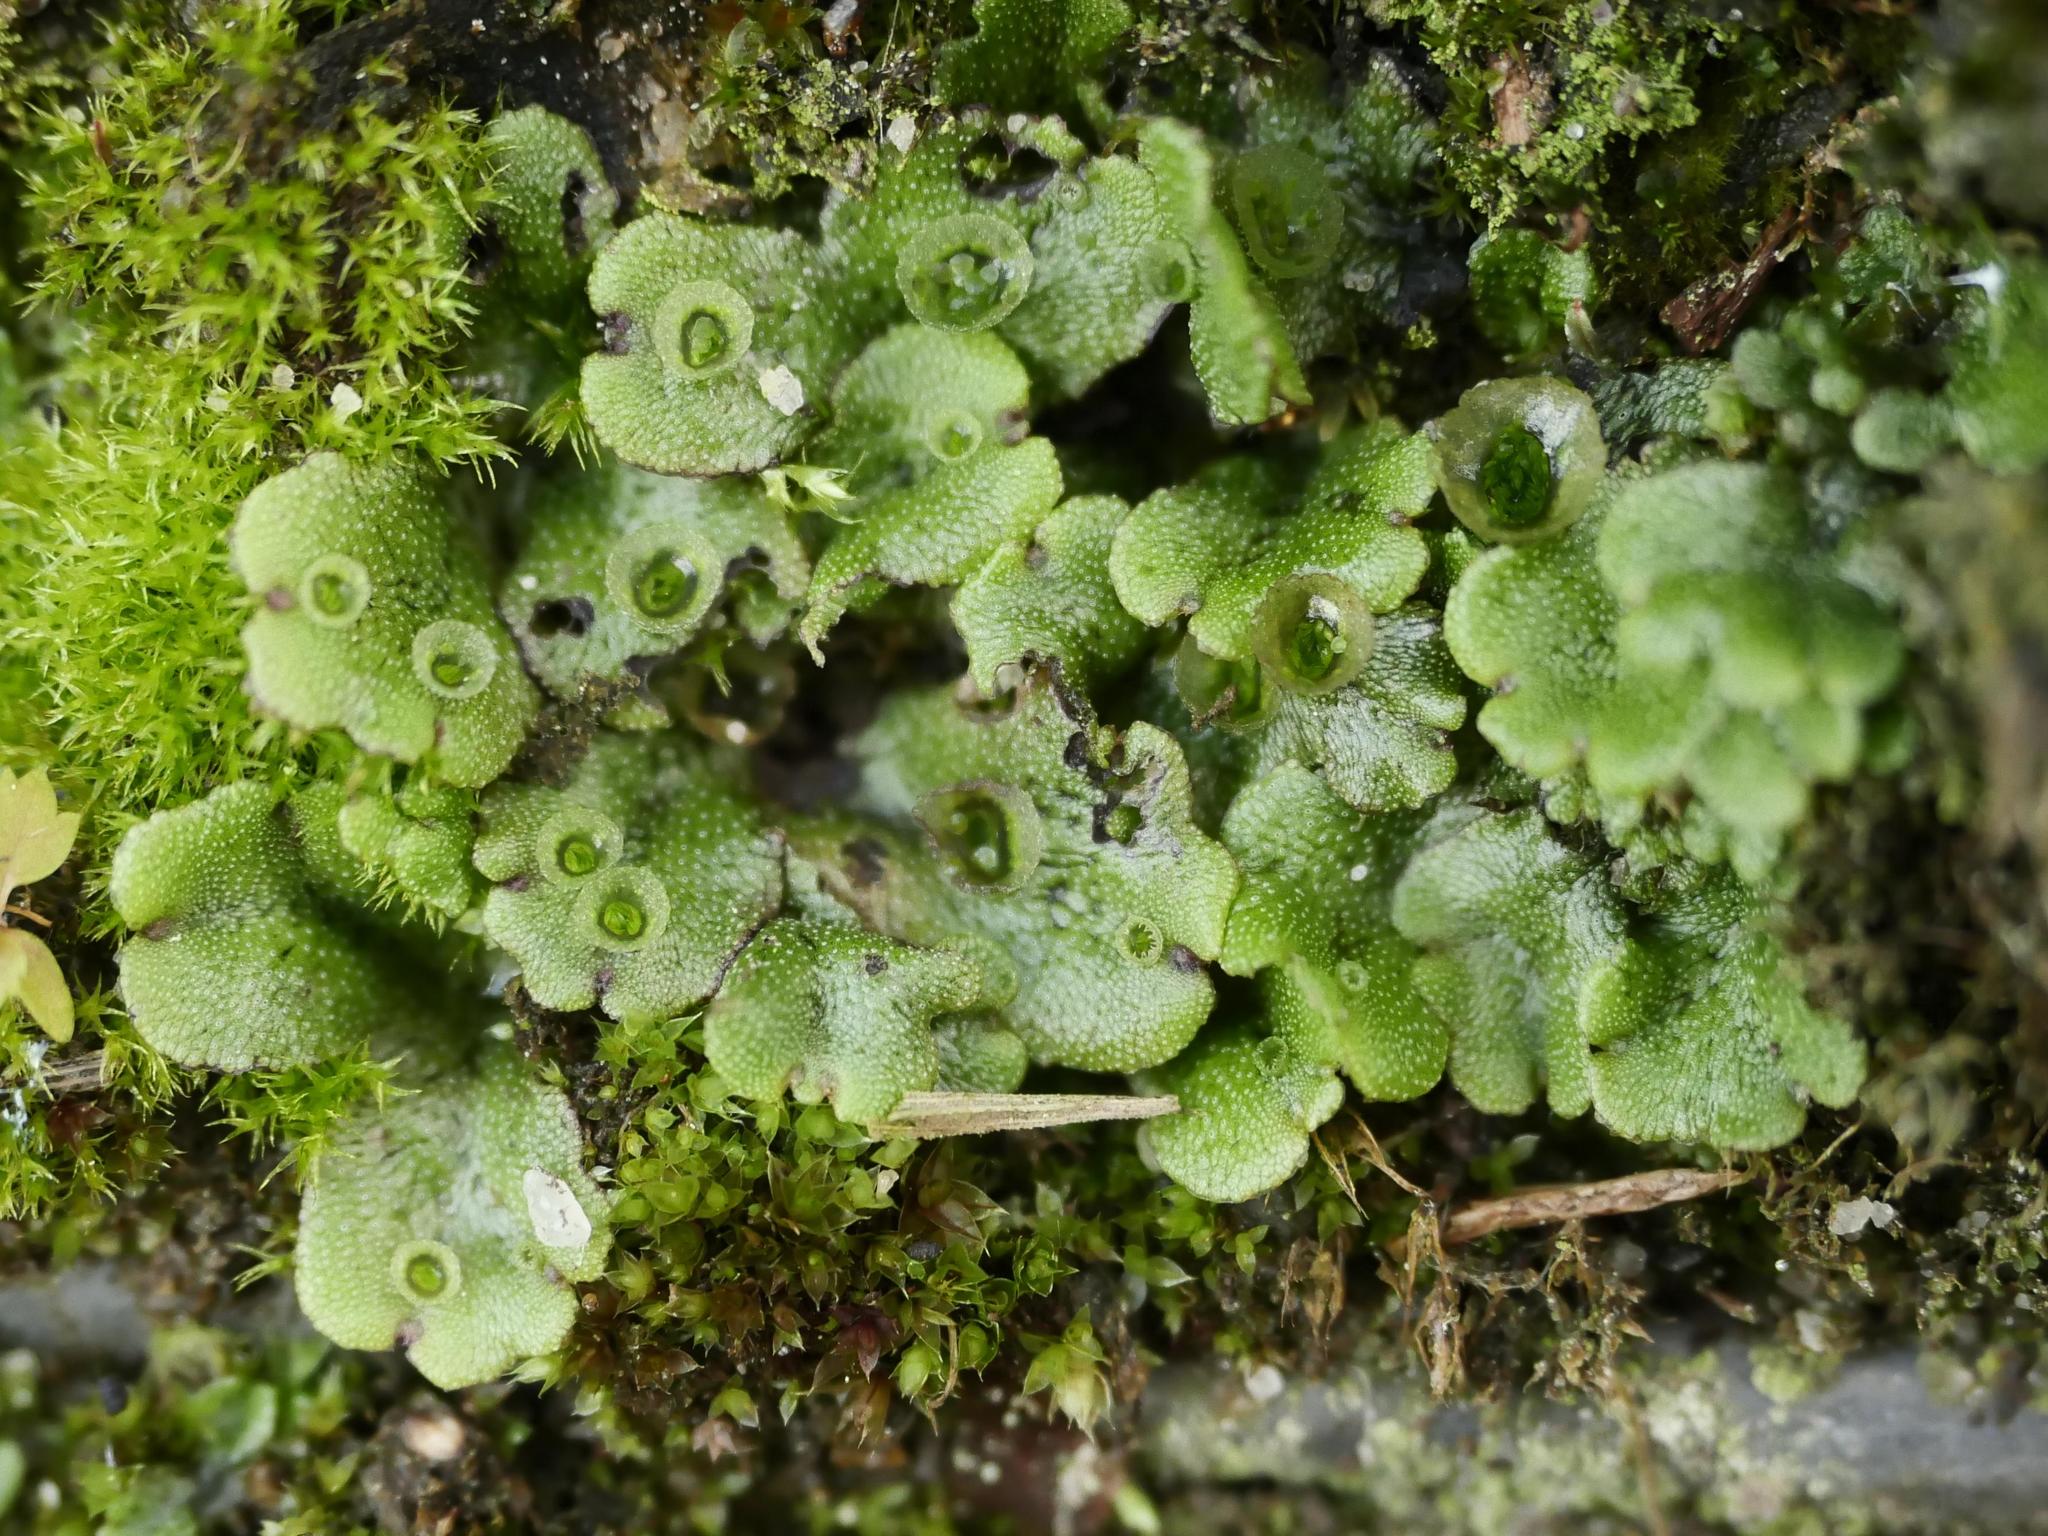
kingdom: Plantae
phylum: Marchantiophyta
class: Marchantiopsida
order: Marchantiales
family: Marchantiaceae
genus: Marchantia
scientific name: Marchantia polymorpha
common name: Common liverwort
